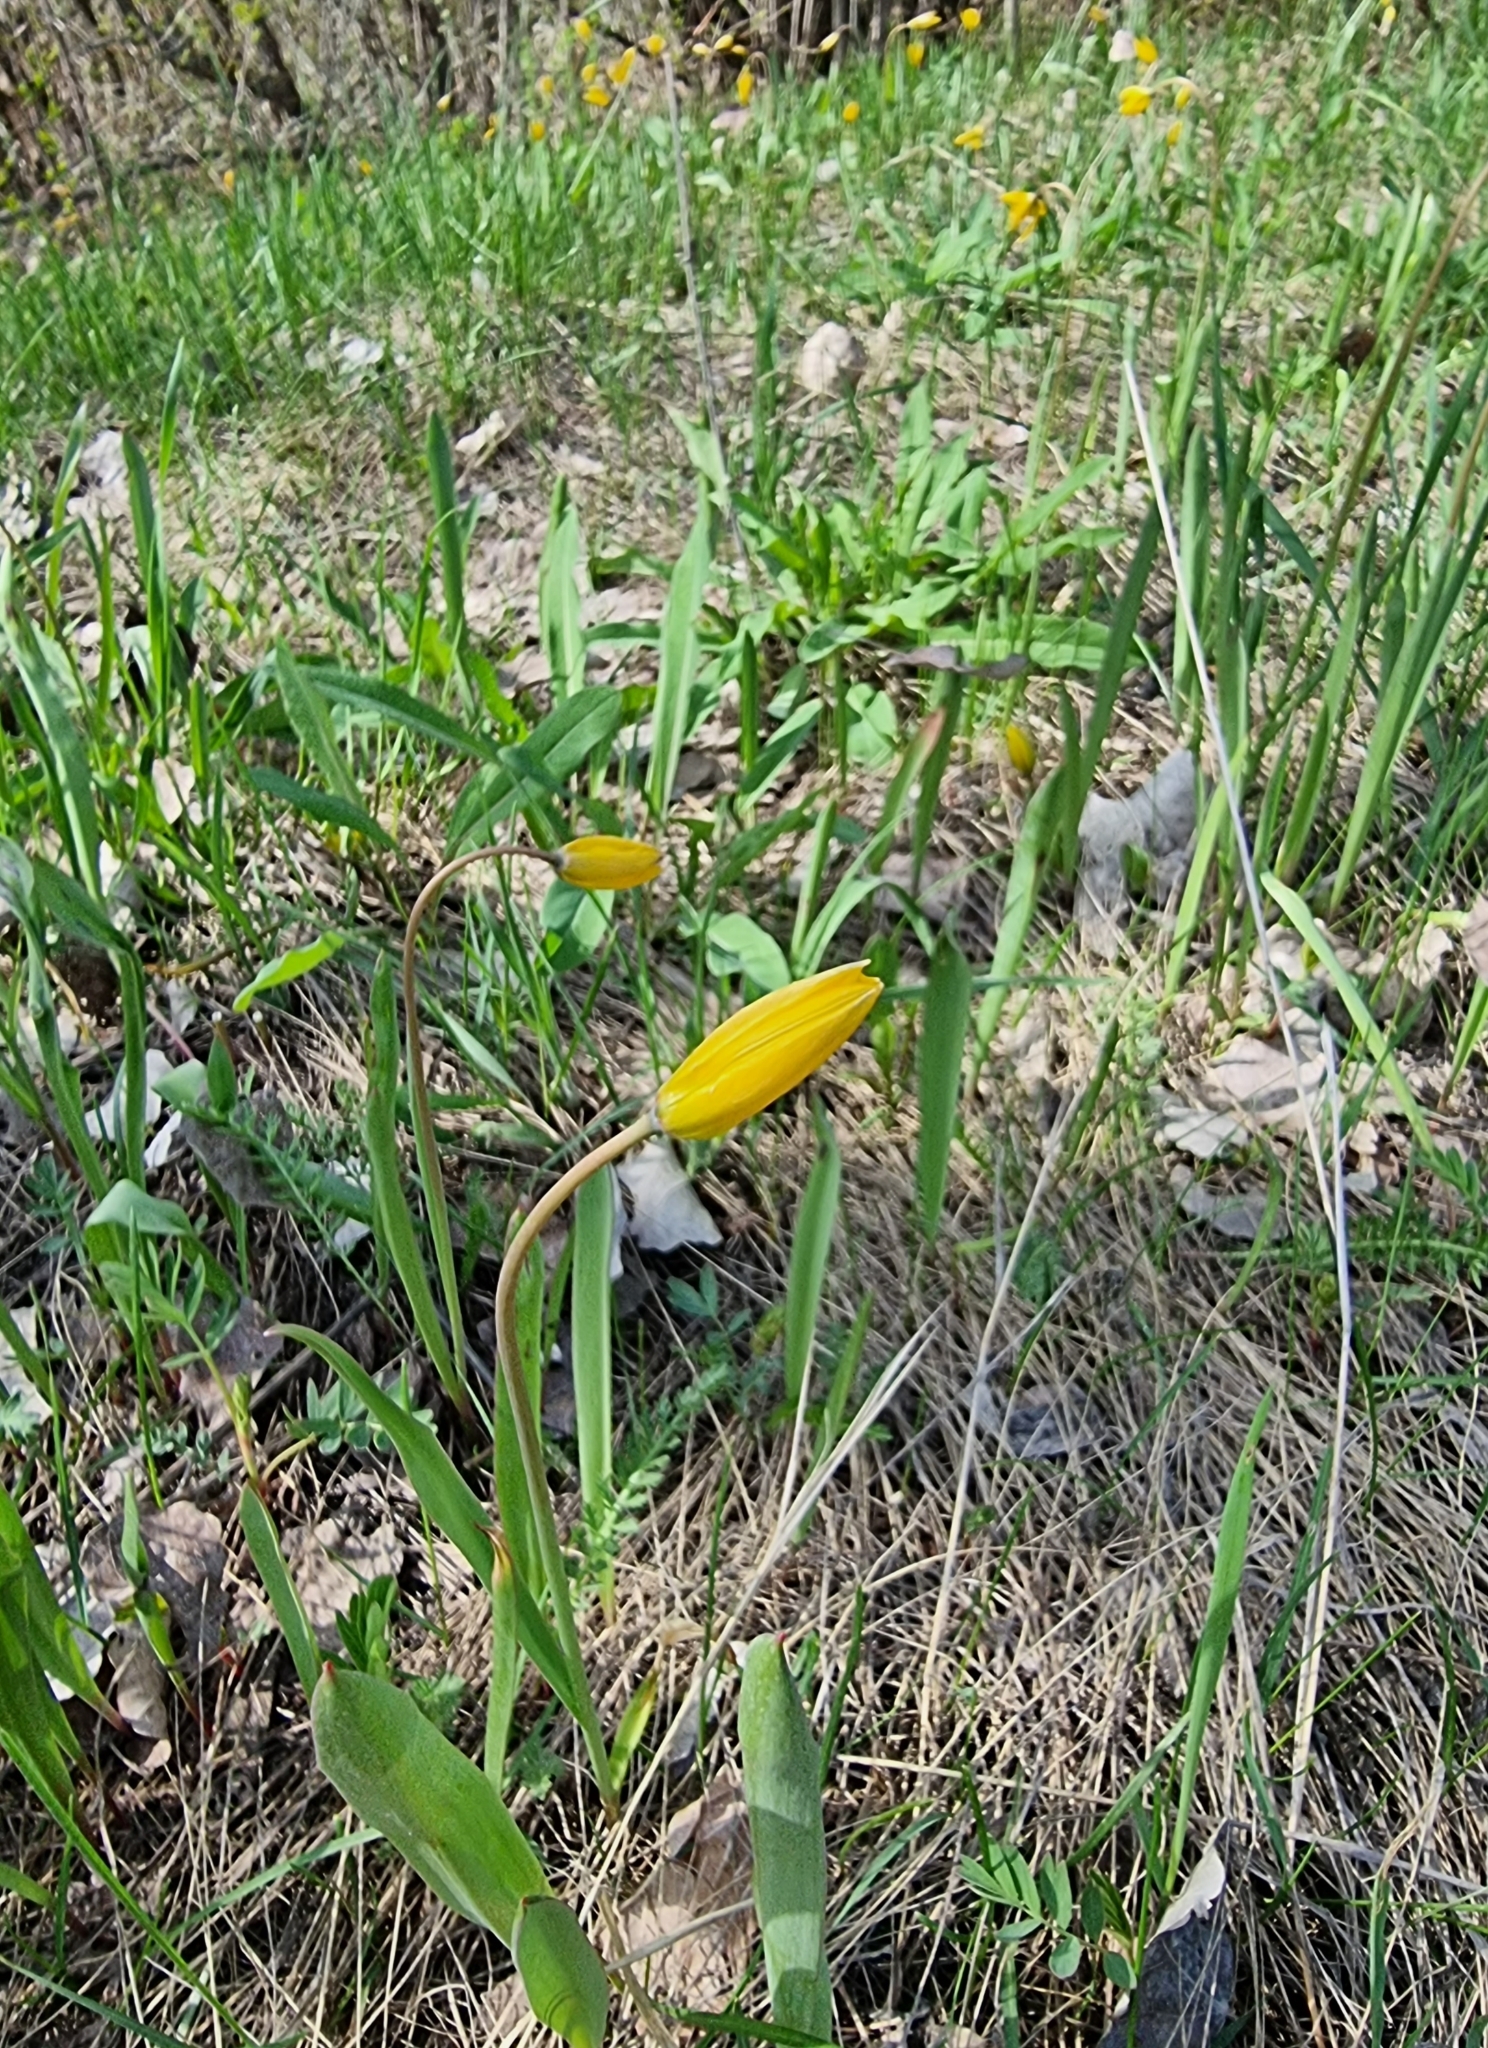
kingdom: Plantae
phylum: Tracheophyta
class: Liliopsida
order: Liliales
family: Liliaceae
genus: Tulipa
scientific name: Tulipa sylvestris
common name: Wild tulip
